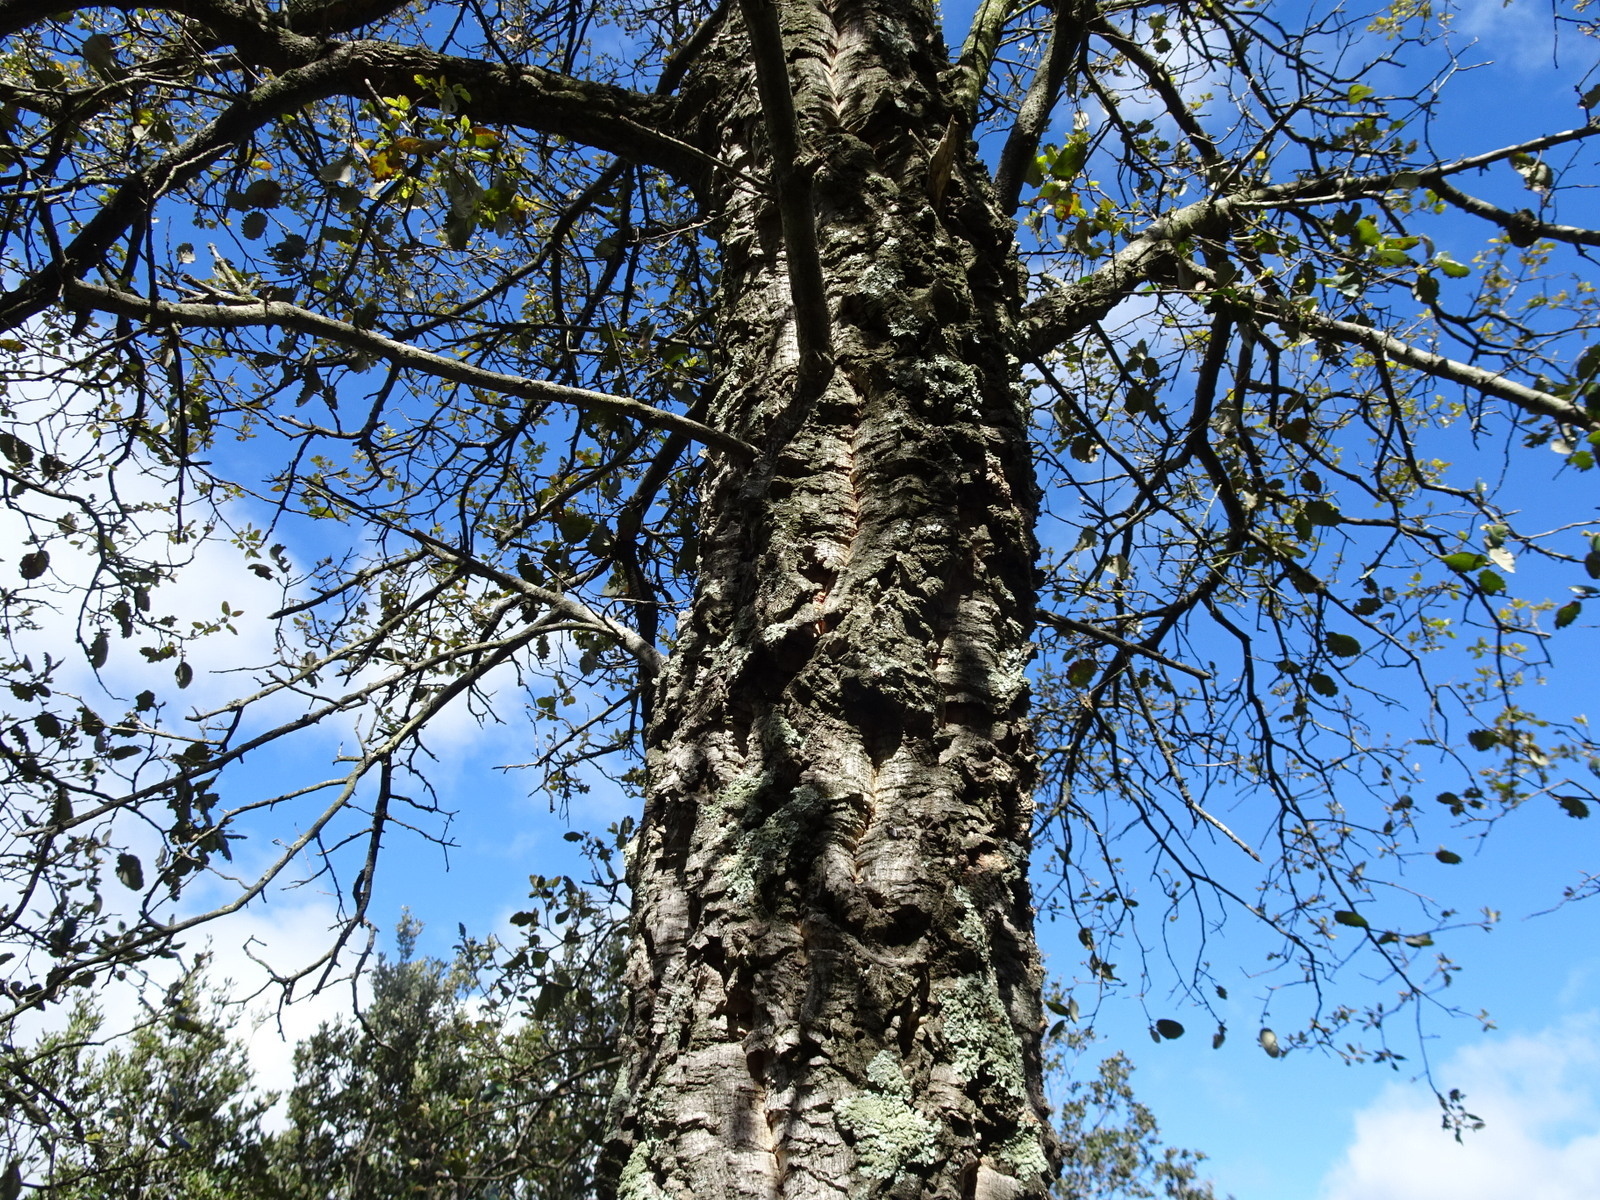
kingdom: Plantae
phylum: Tracheophyta
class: Magnoliopsida
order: Fagales
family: Fagaceae
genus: Quercus
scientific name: Quercus suber
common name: Cork oak
